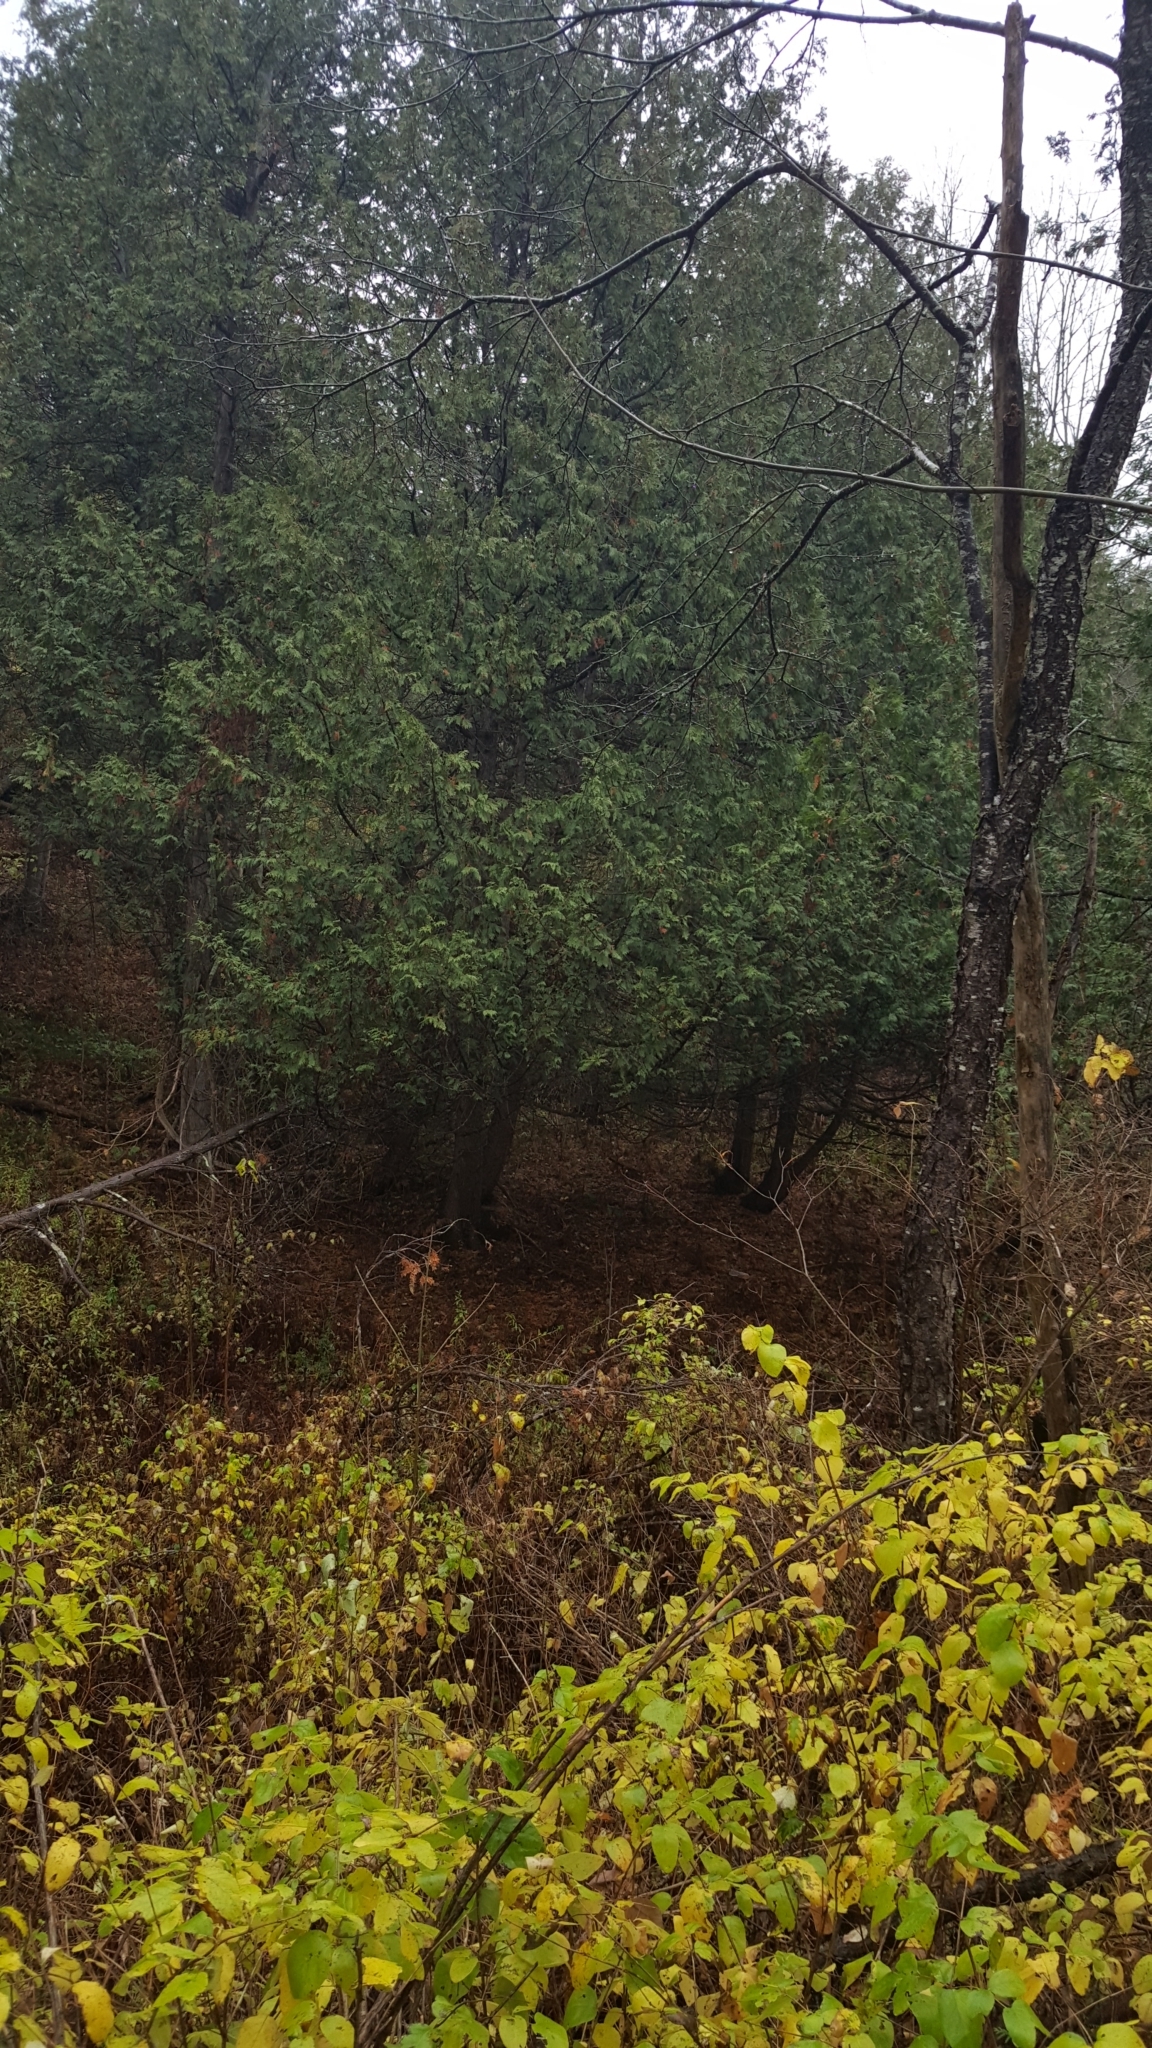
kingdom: Plantae
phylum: Tracheophyta
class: Pinopsida
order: Pinales
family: Cupressaceae
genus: Thuja
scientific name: Thuja occidentalis
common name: Northern white-cedar
